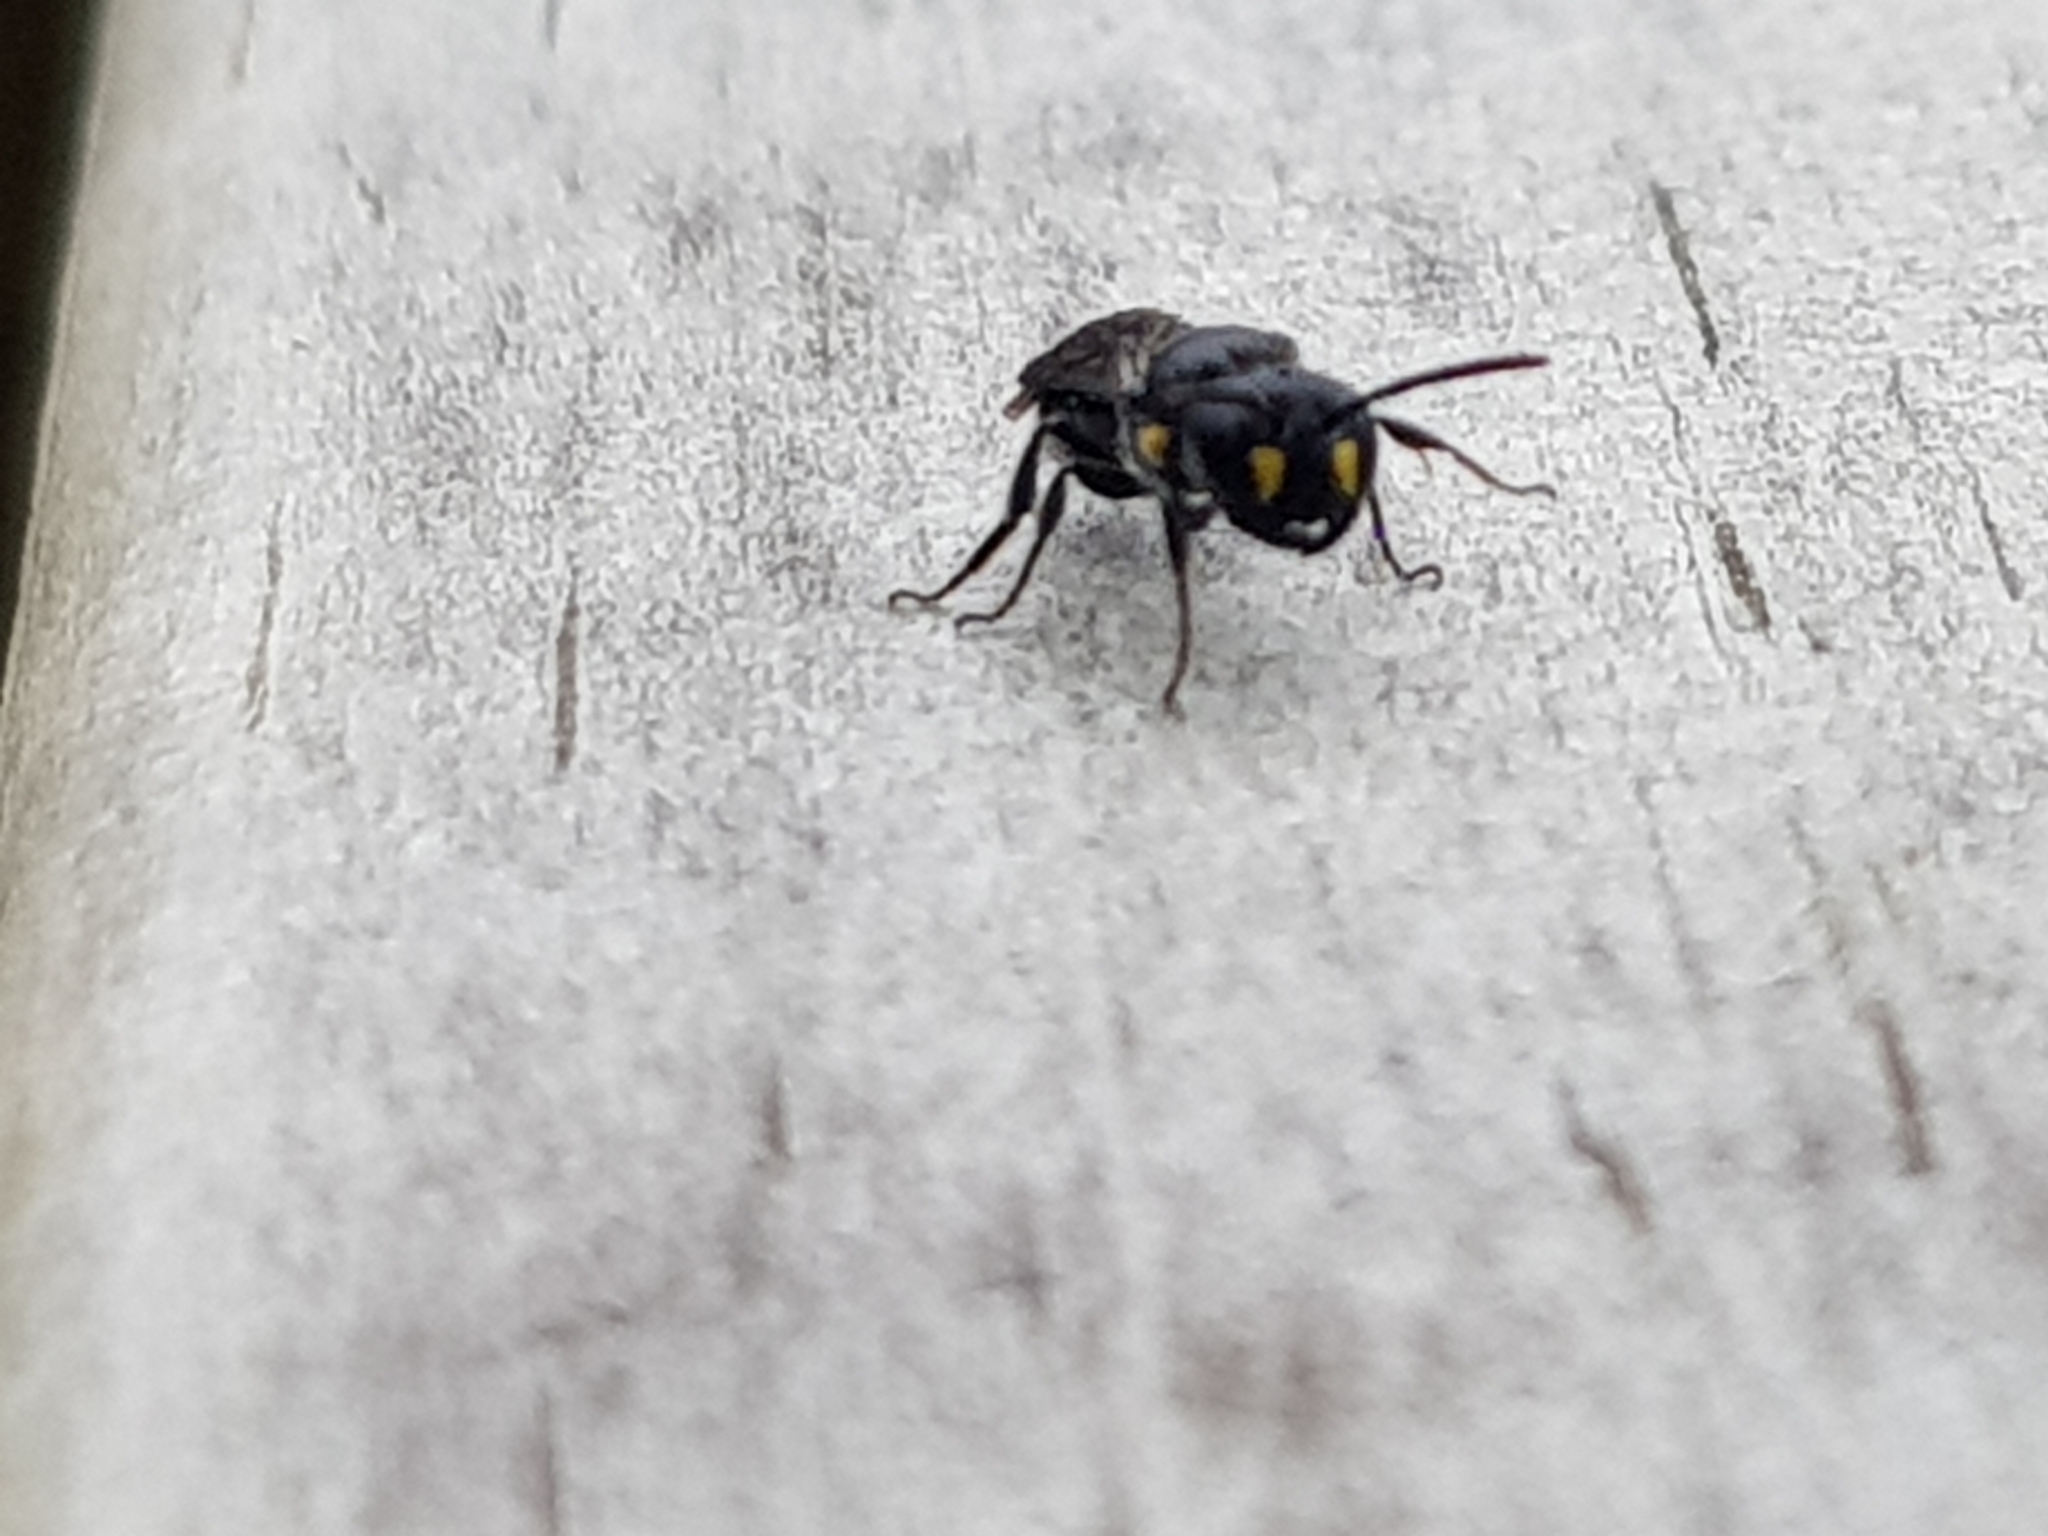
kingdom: Animalia
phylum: Arthropoda
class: Insecta
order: Hymenoptera
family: Colletidae
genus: Hylaeus
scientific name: Hylaeus agilis
